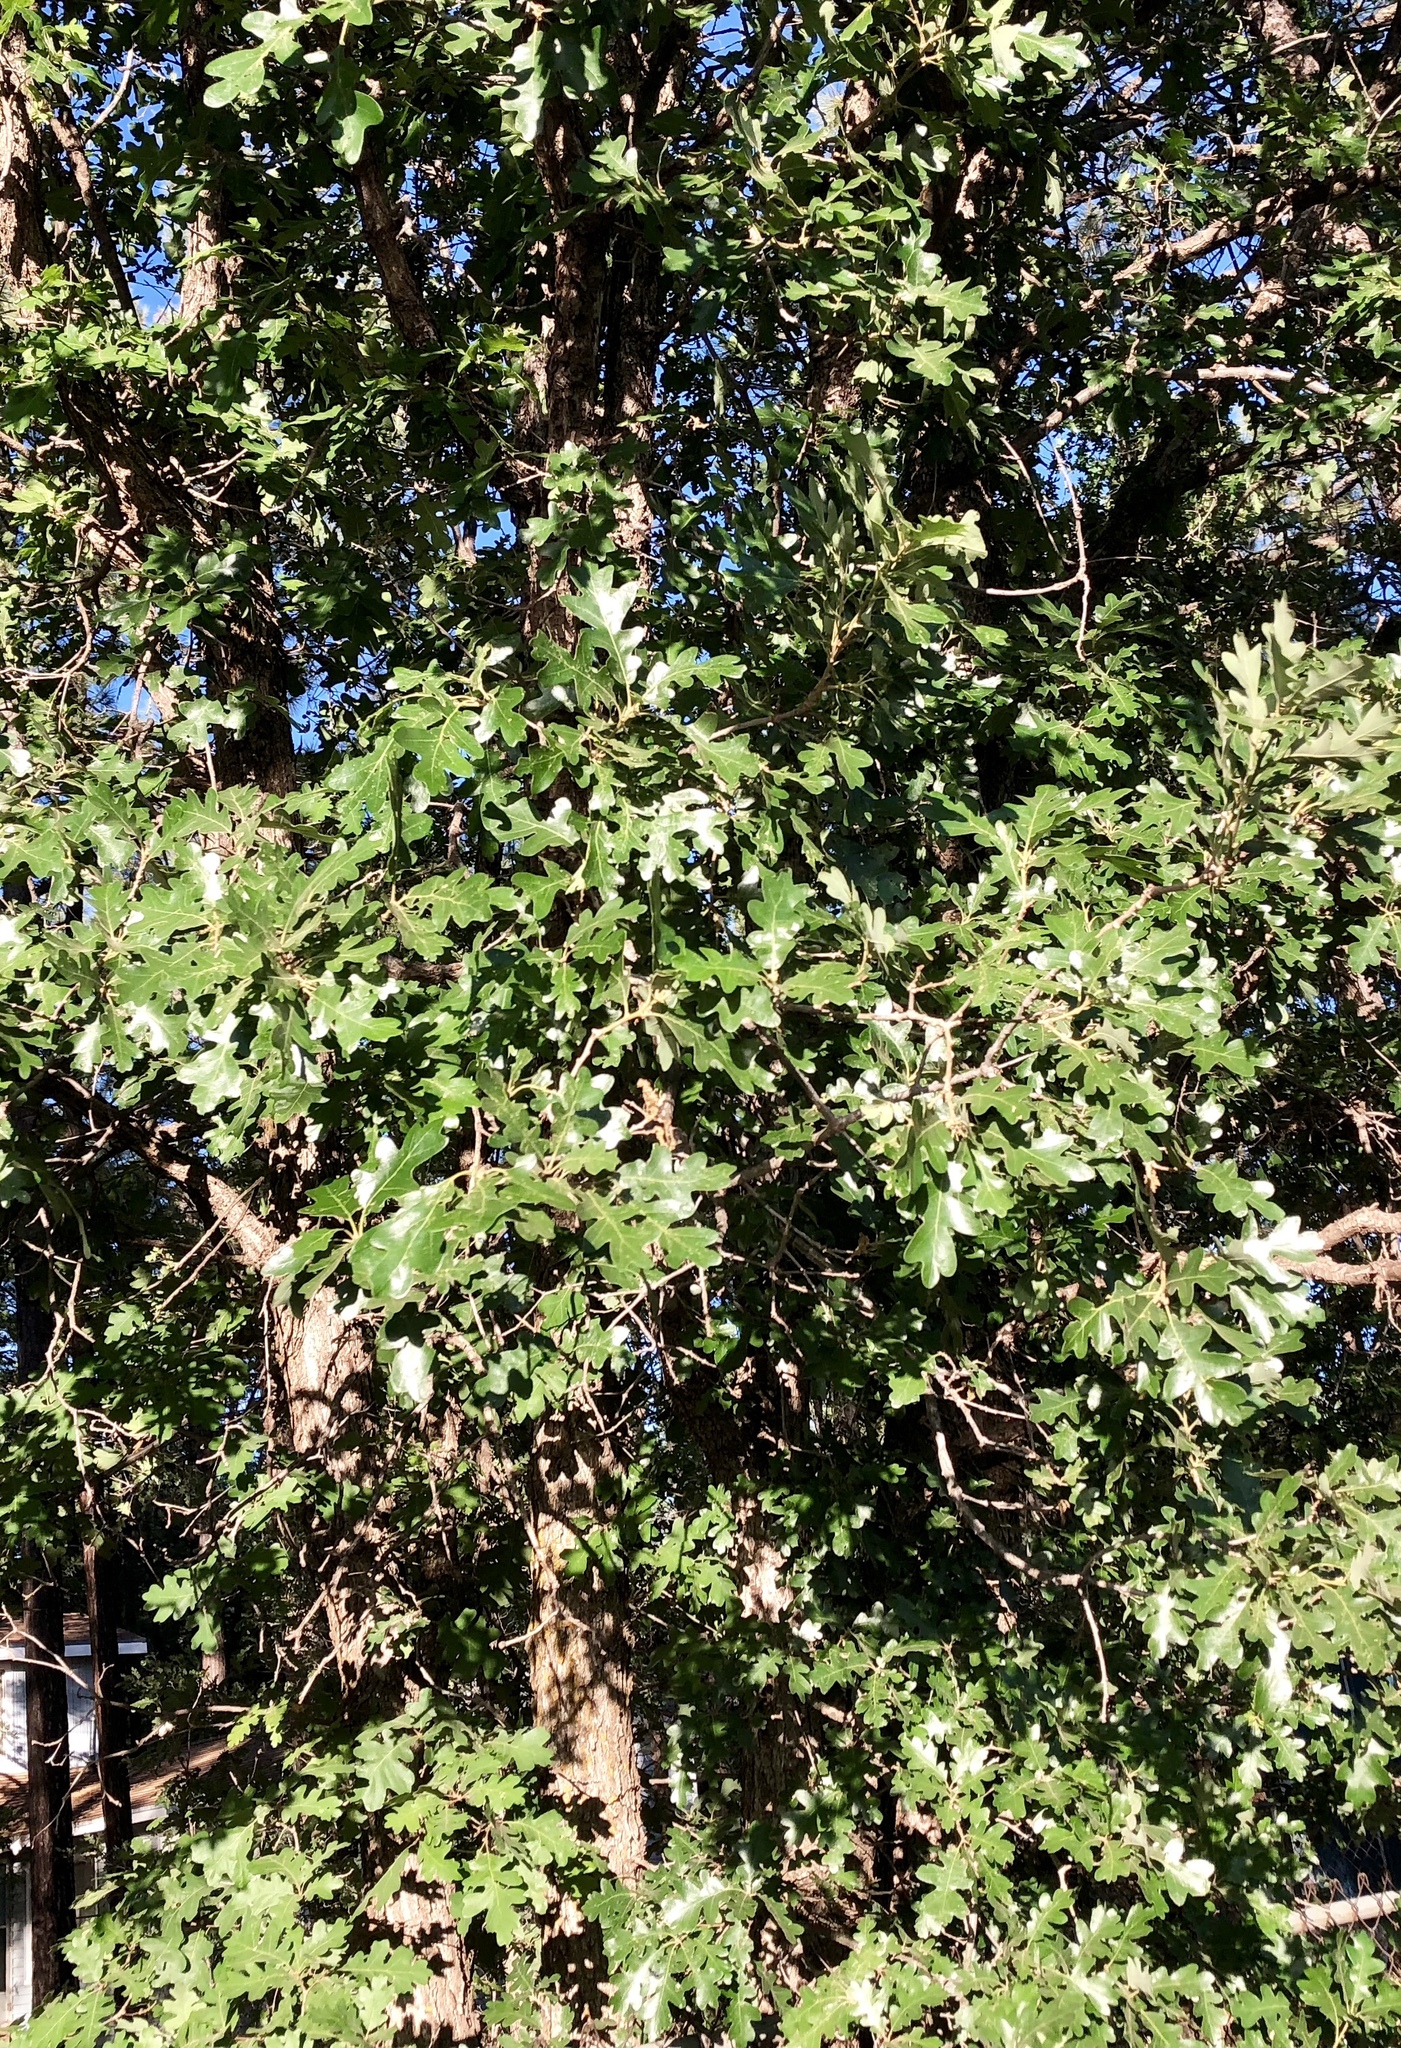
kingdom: Plantae
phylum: Tracheophyta
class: Magnoliopsida
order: Fagales
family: Fagaceae
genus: Quercus
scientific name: Quercus gambelii
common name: Gambel oak
